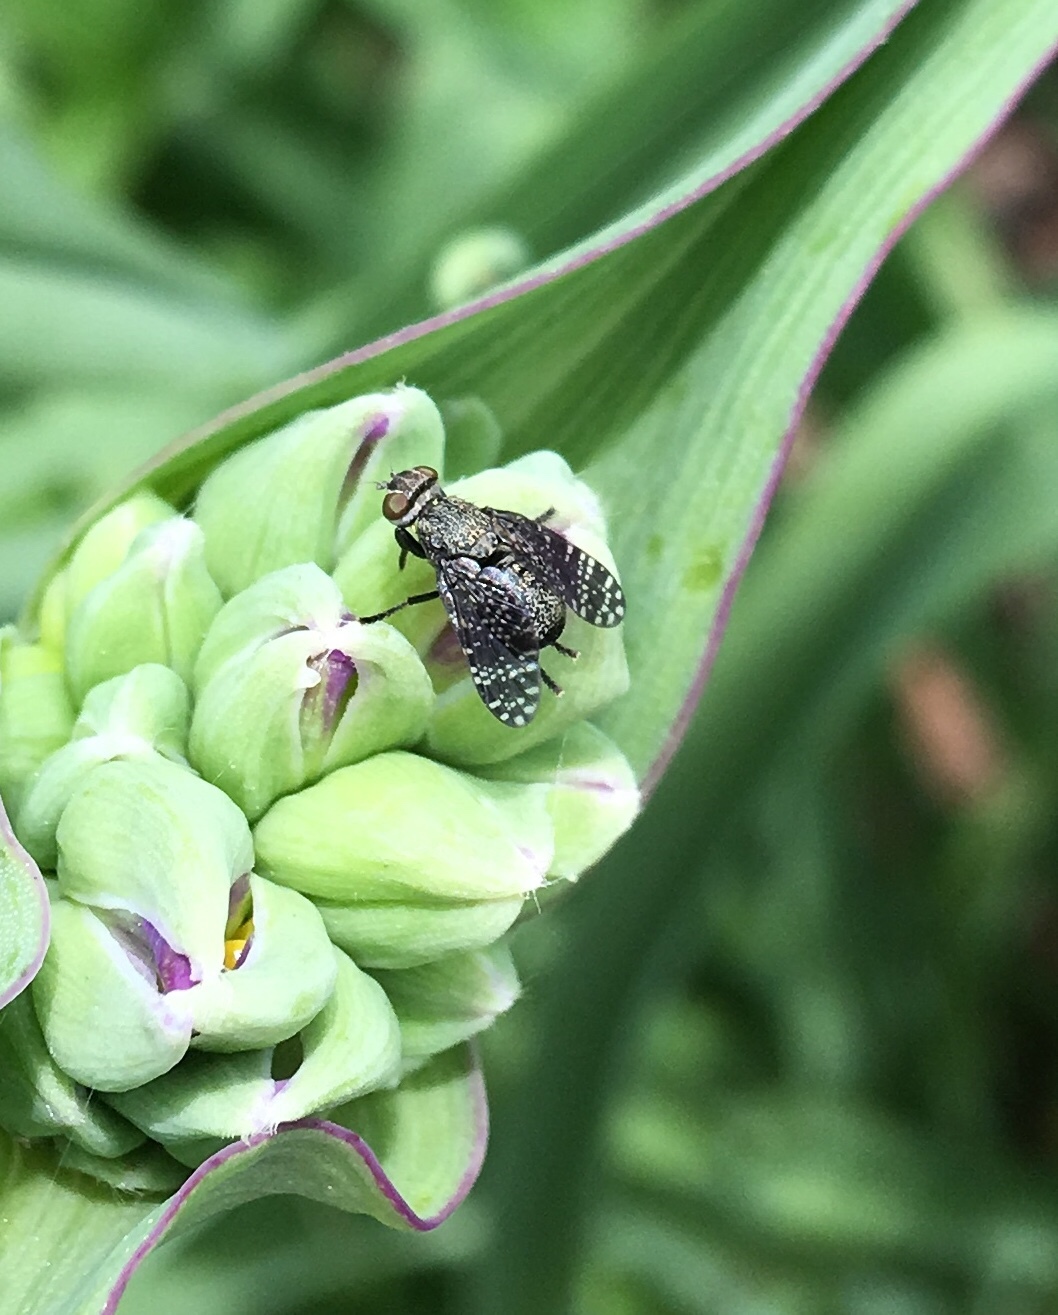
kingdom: Animalia
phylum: Arthropoda
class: Insecta
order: Diptera
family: Platystomatidae
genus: Platystoma
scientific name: Platystoma seminationis
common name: Fly
